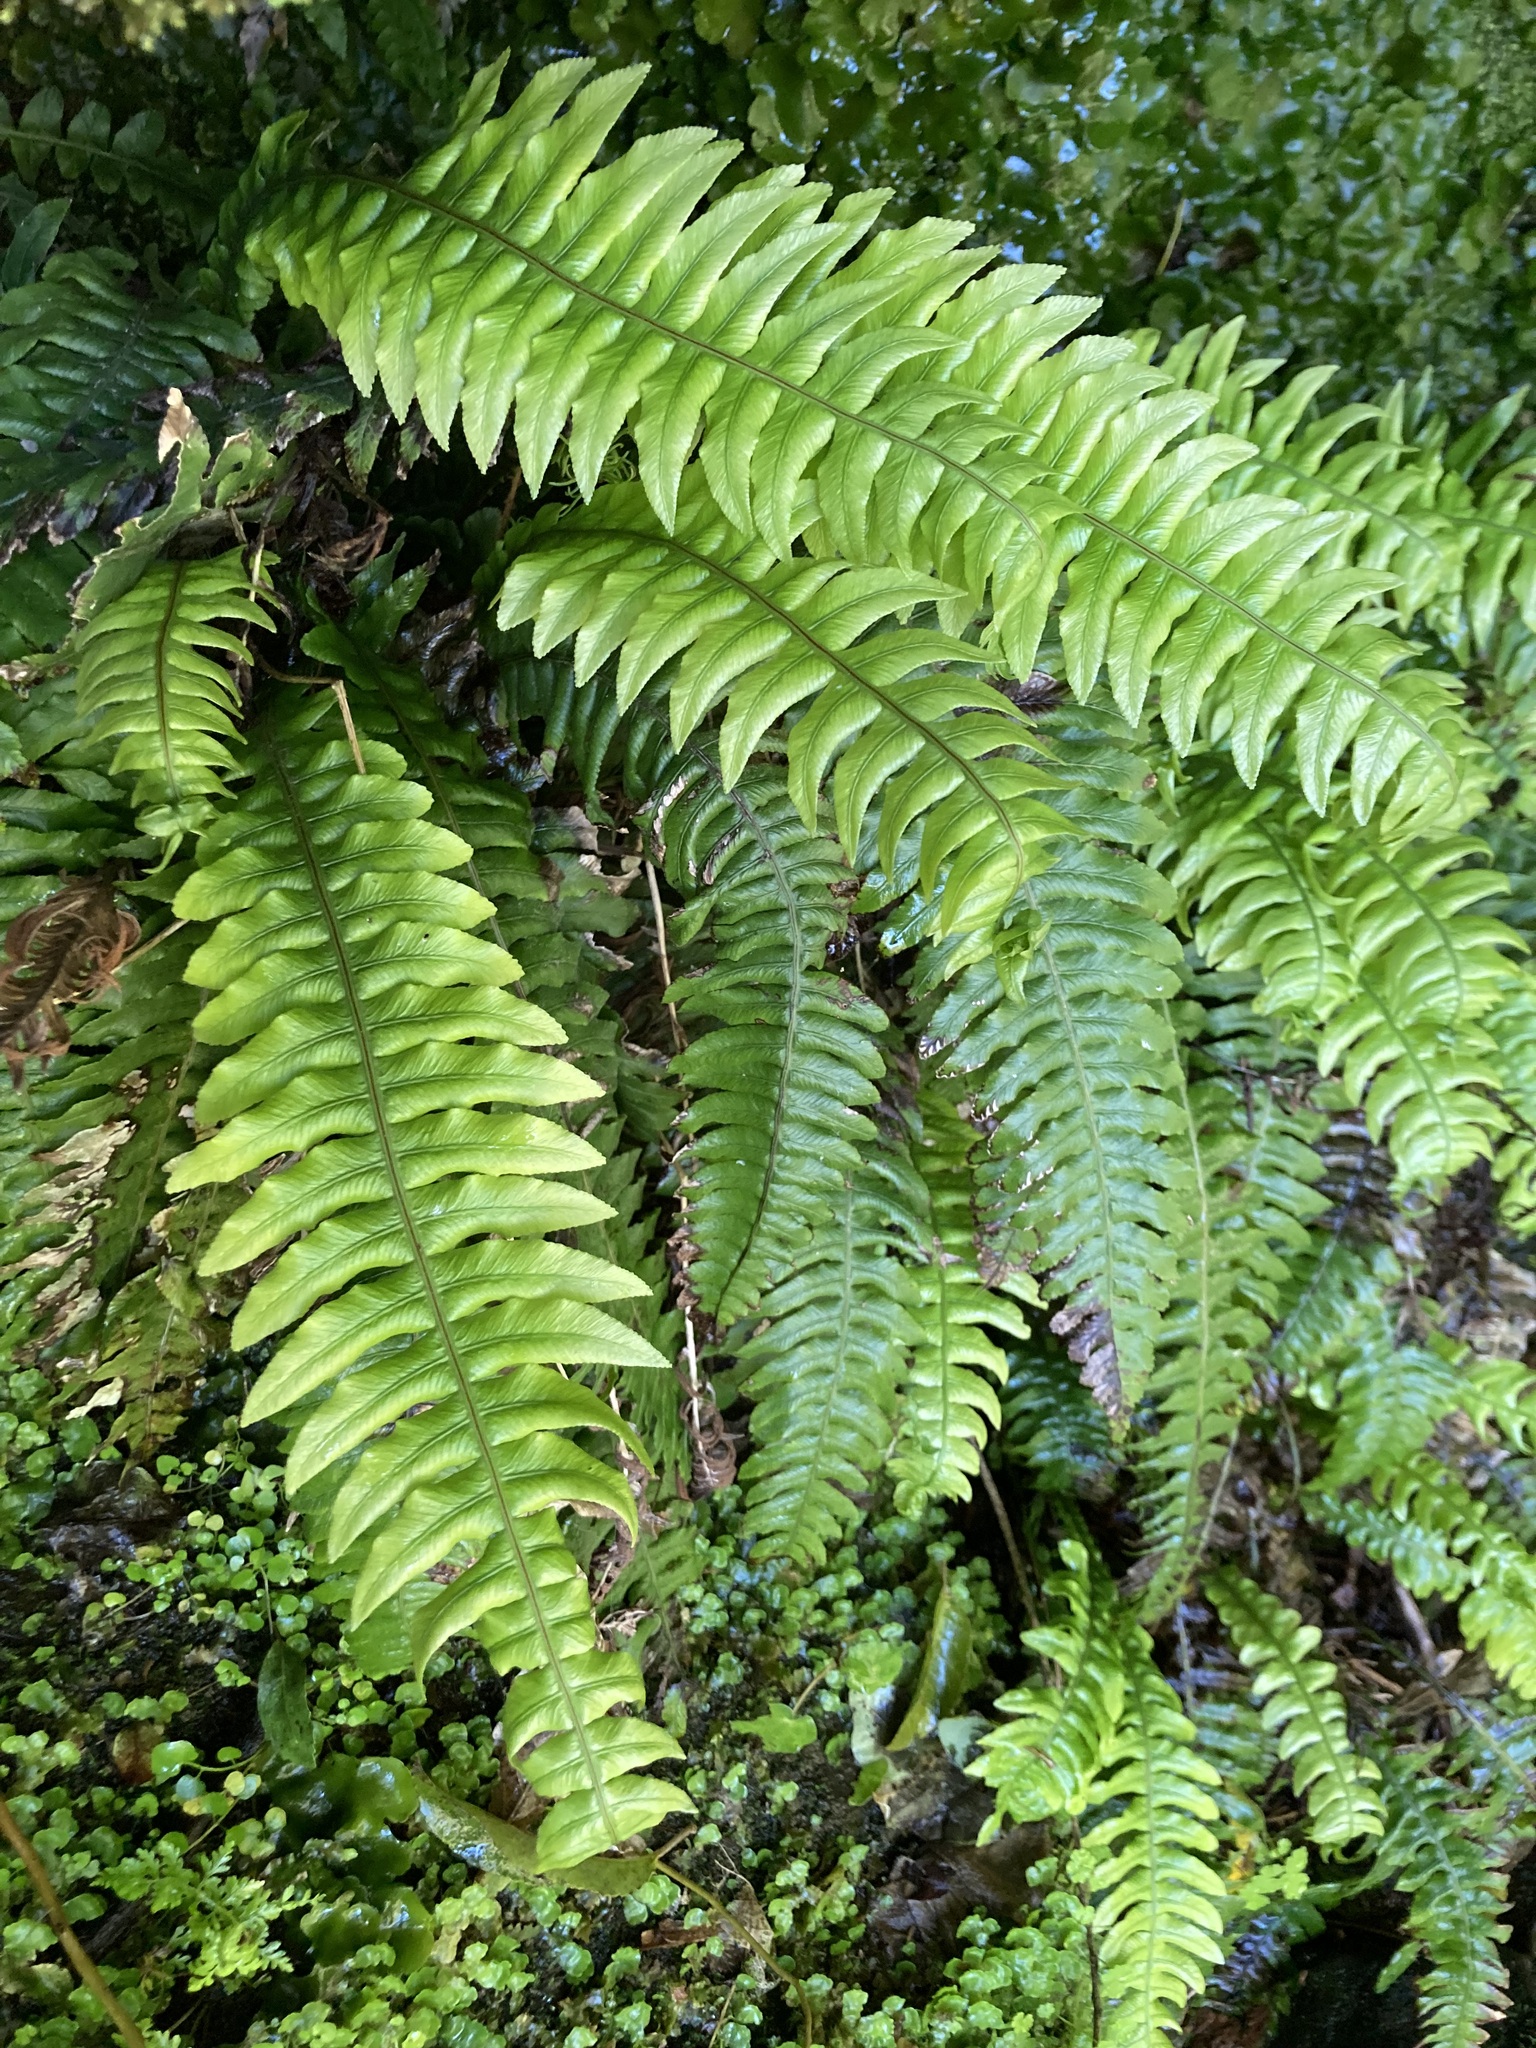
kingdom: Plantae
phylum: Tracheophyta
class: Polypodiopsida
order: Polypodiales
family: Blechnaceae
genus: Austroblechnum
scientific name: Austroblechnum lanceolatum
